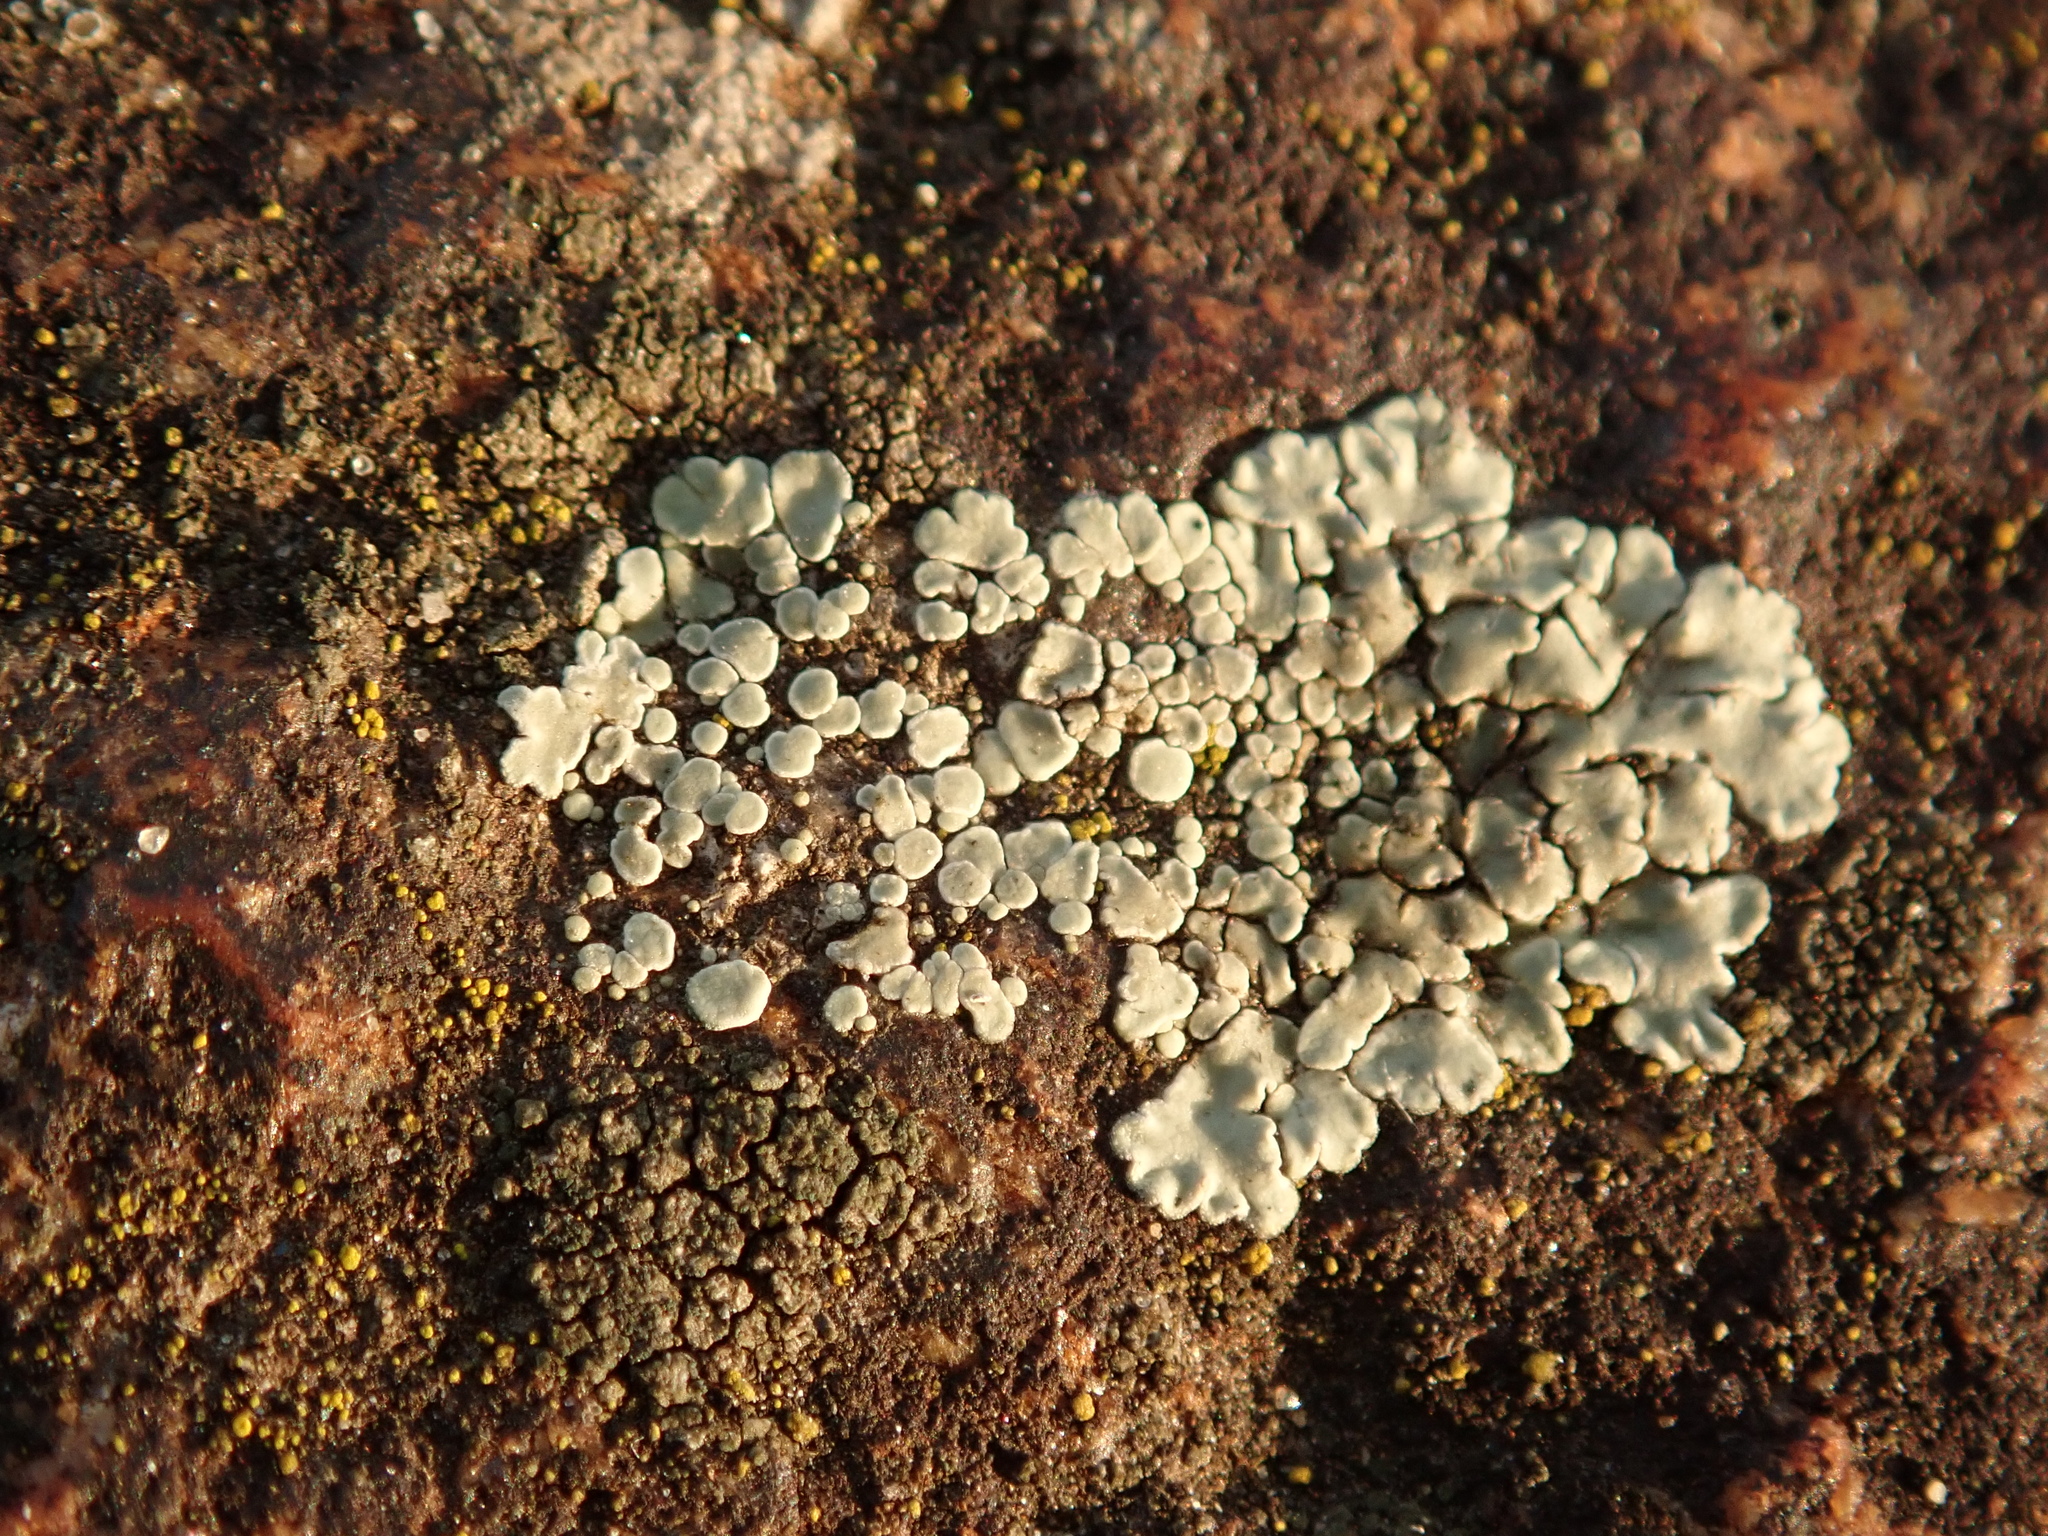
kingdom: Fungi
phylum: Ascomycota
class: Lecanoromycetes
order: Lecanorales
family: Lecanoraceae
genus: Protoparmeliopsis
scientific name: Protoparmeliopsis muralis
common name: Stonewall rim lichen
